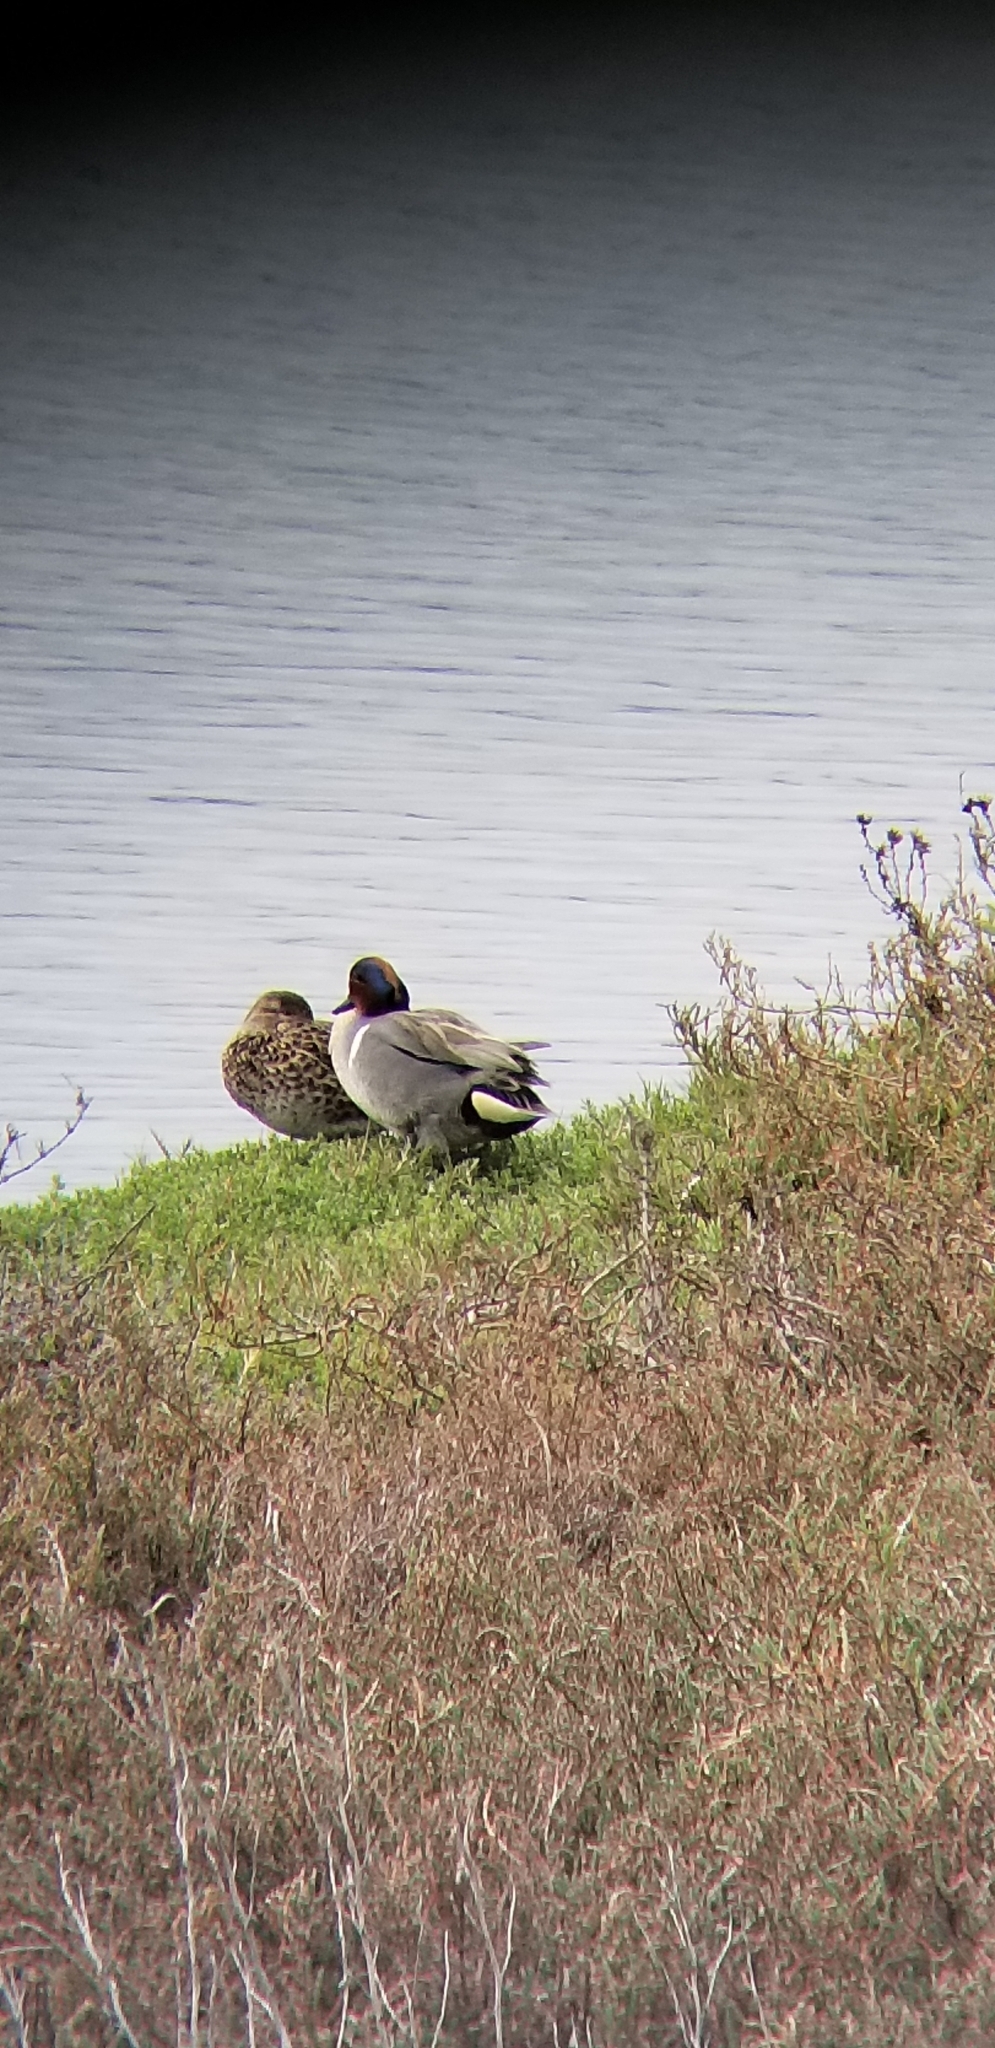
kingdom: Animalia
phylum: Chordata
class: Aves
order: Anseriformes
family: Anatidae
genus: Anas
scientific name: Anas crecca
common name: Eurasian teal
